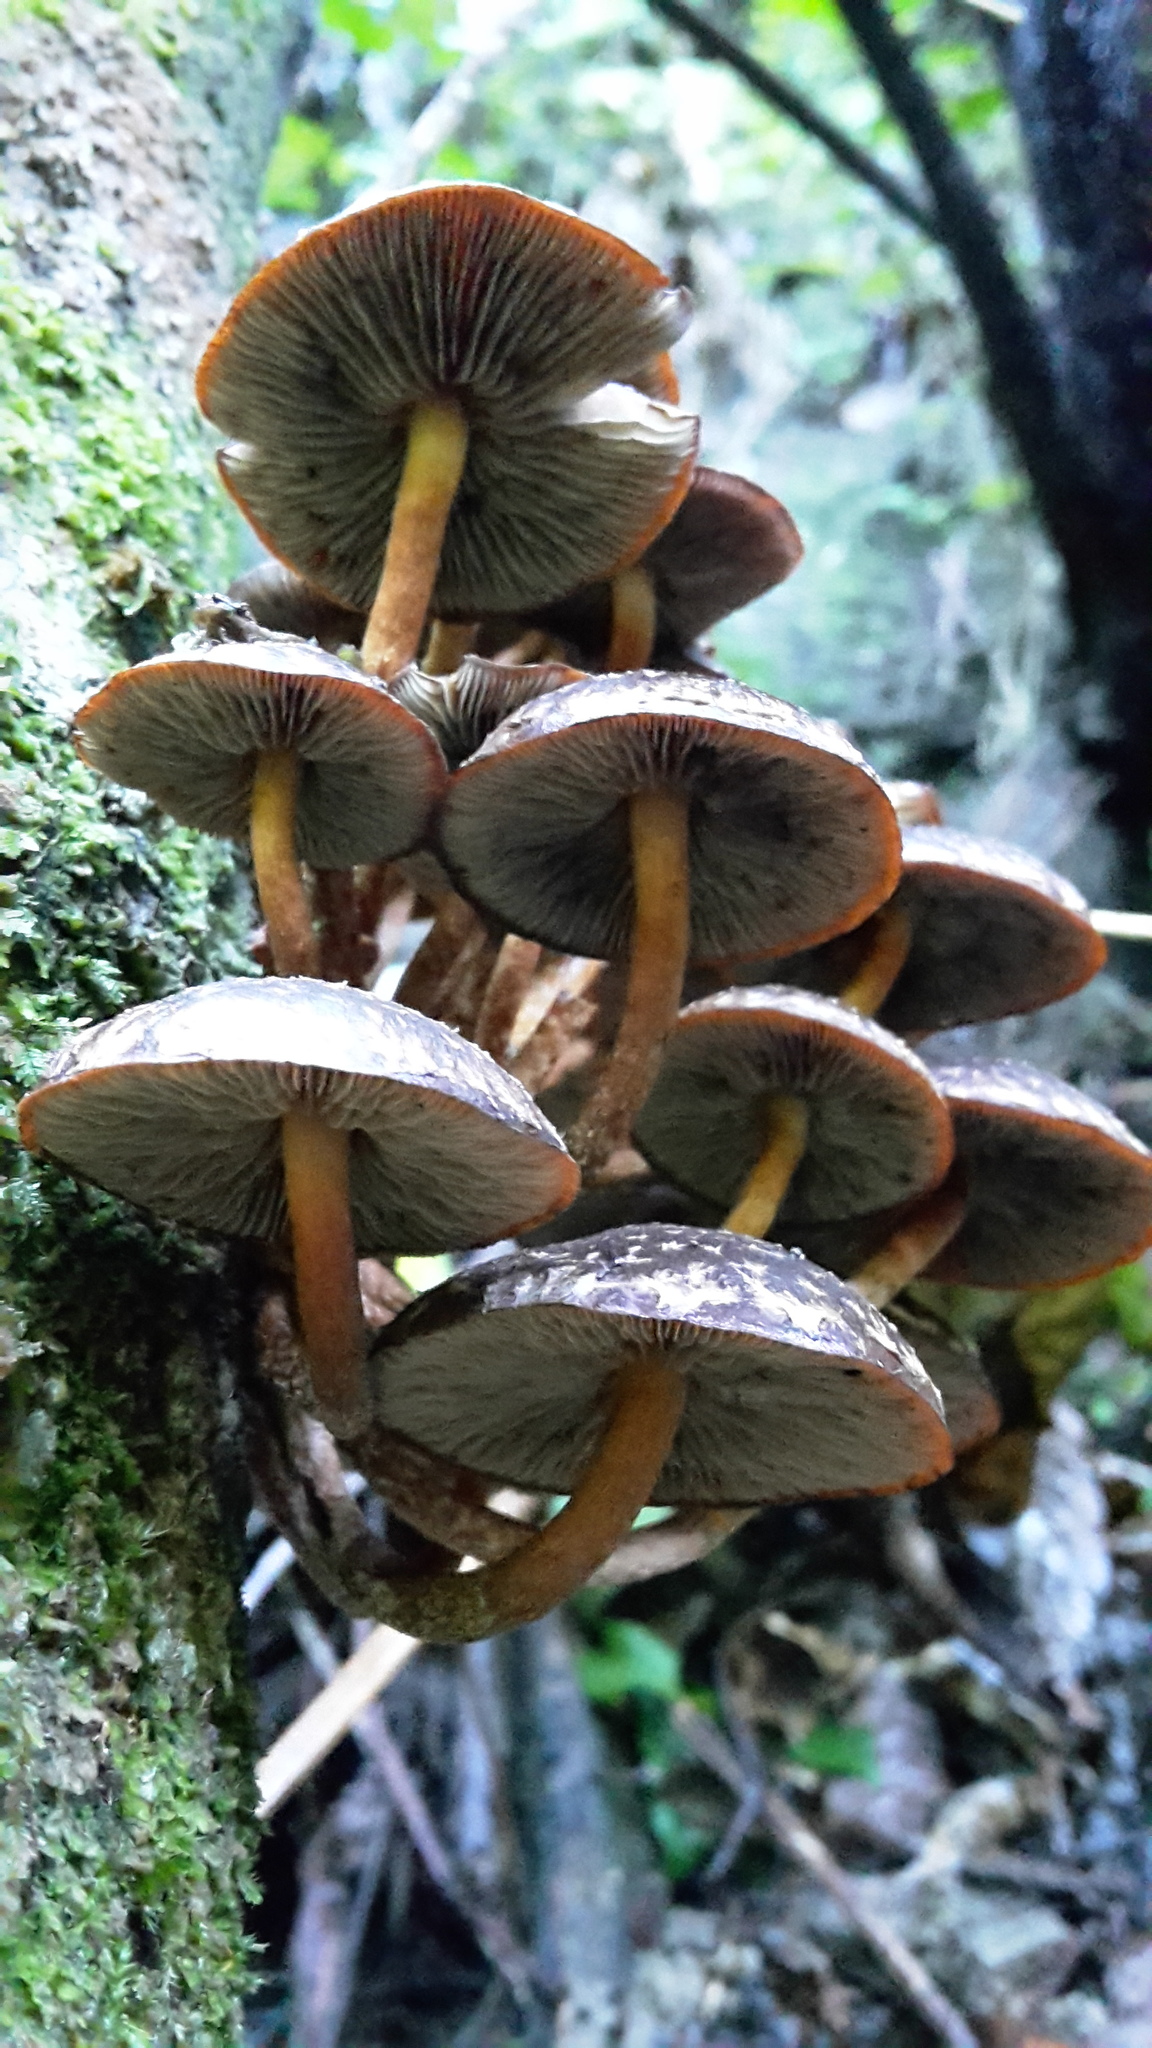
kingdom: Fungi
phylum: Basidiomycota
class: Agaricomycetes
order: Agaricales
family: Strophariaceae
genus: Hypholoma
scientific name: Hypholoma brunneum
